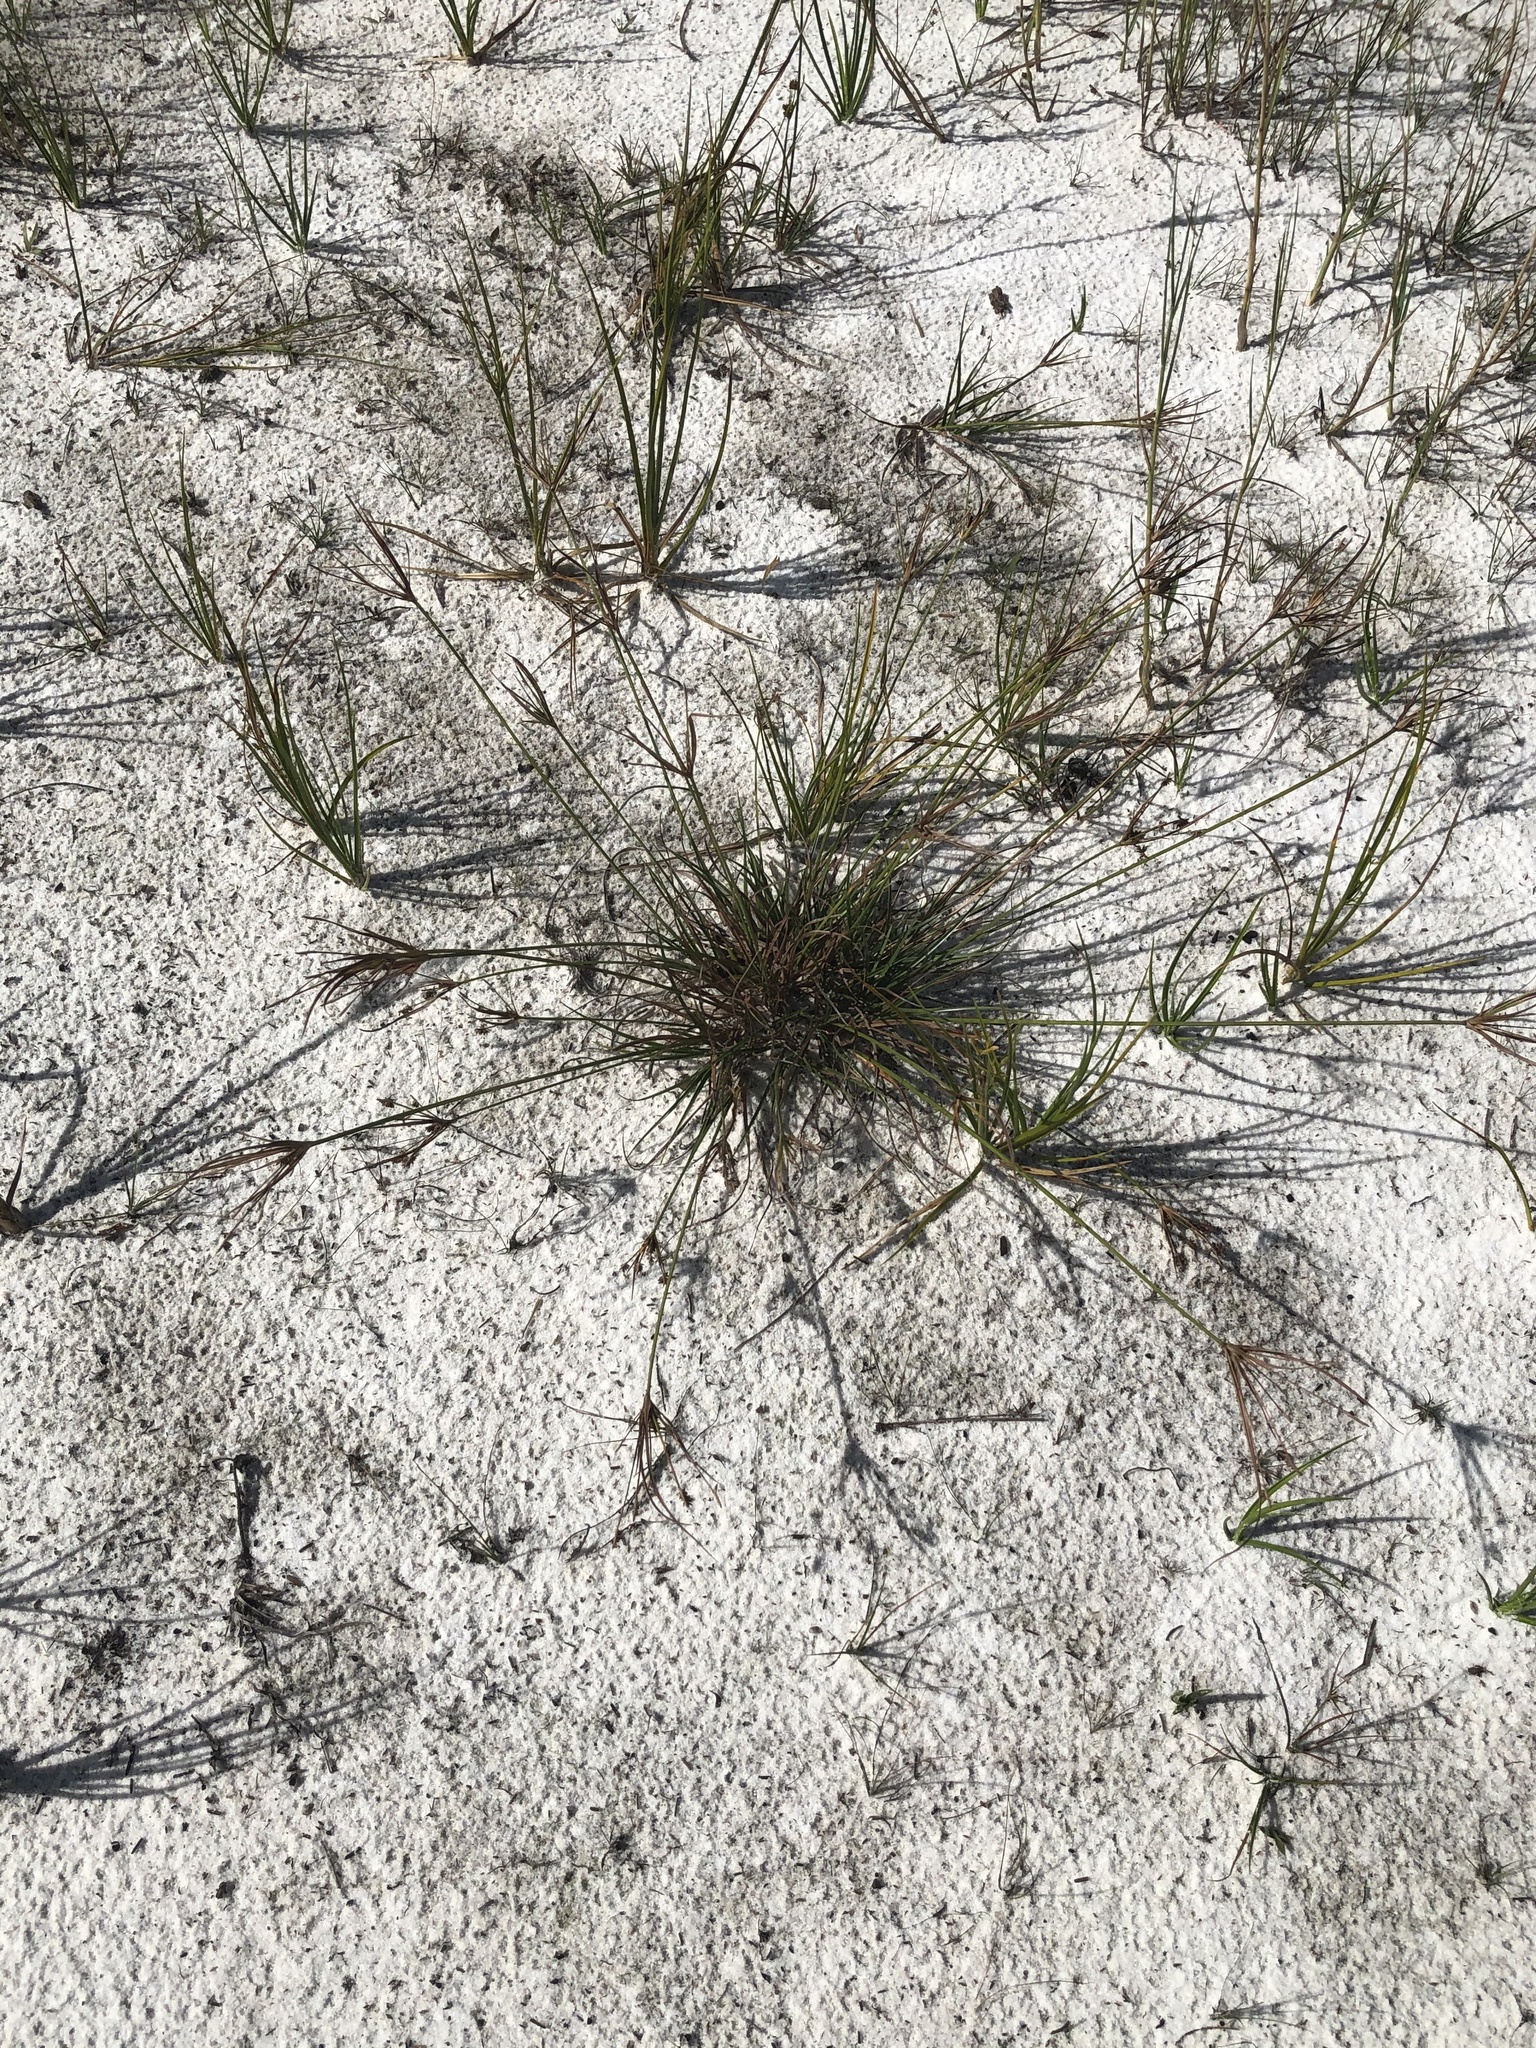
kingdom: Plantae
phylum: Tracheophyta
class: Liliopsida
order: Poales
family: Cyperaceae
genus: Cyperus
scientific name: Cyperus retrorsus
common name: Pinebarren flat sedge
